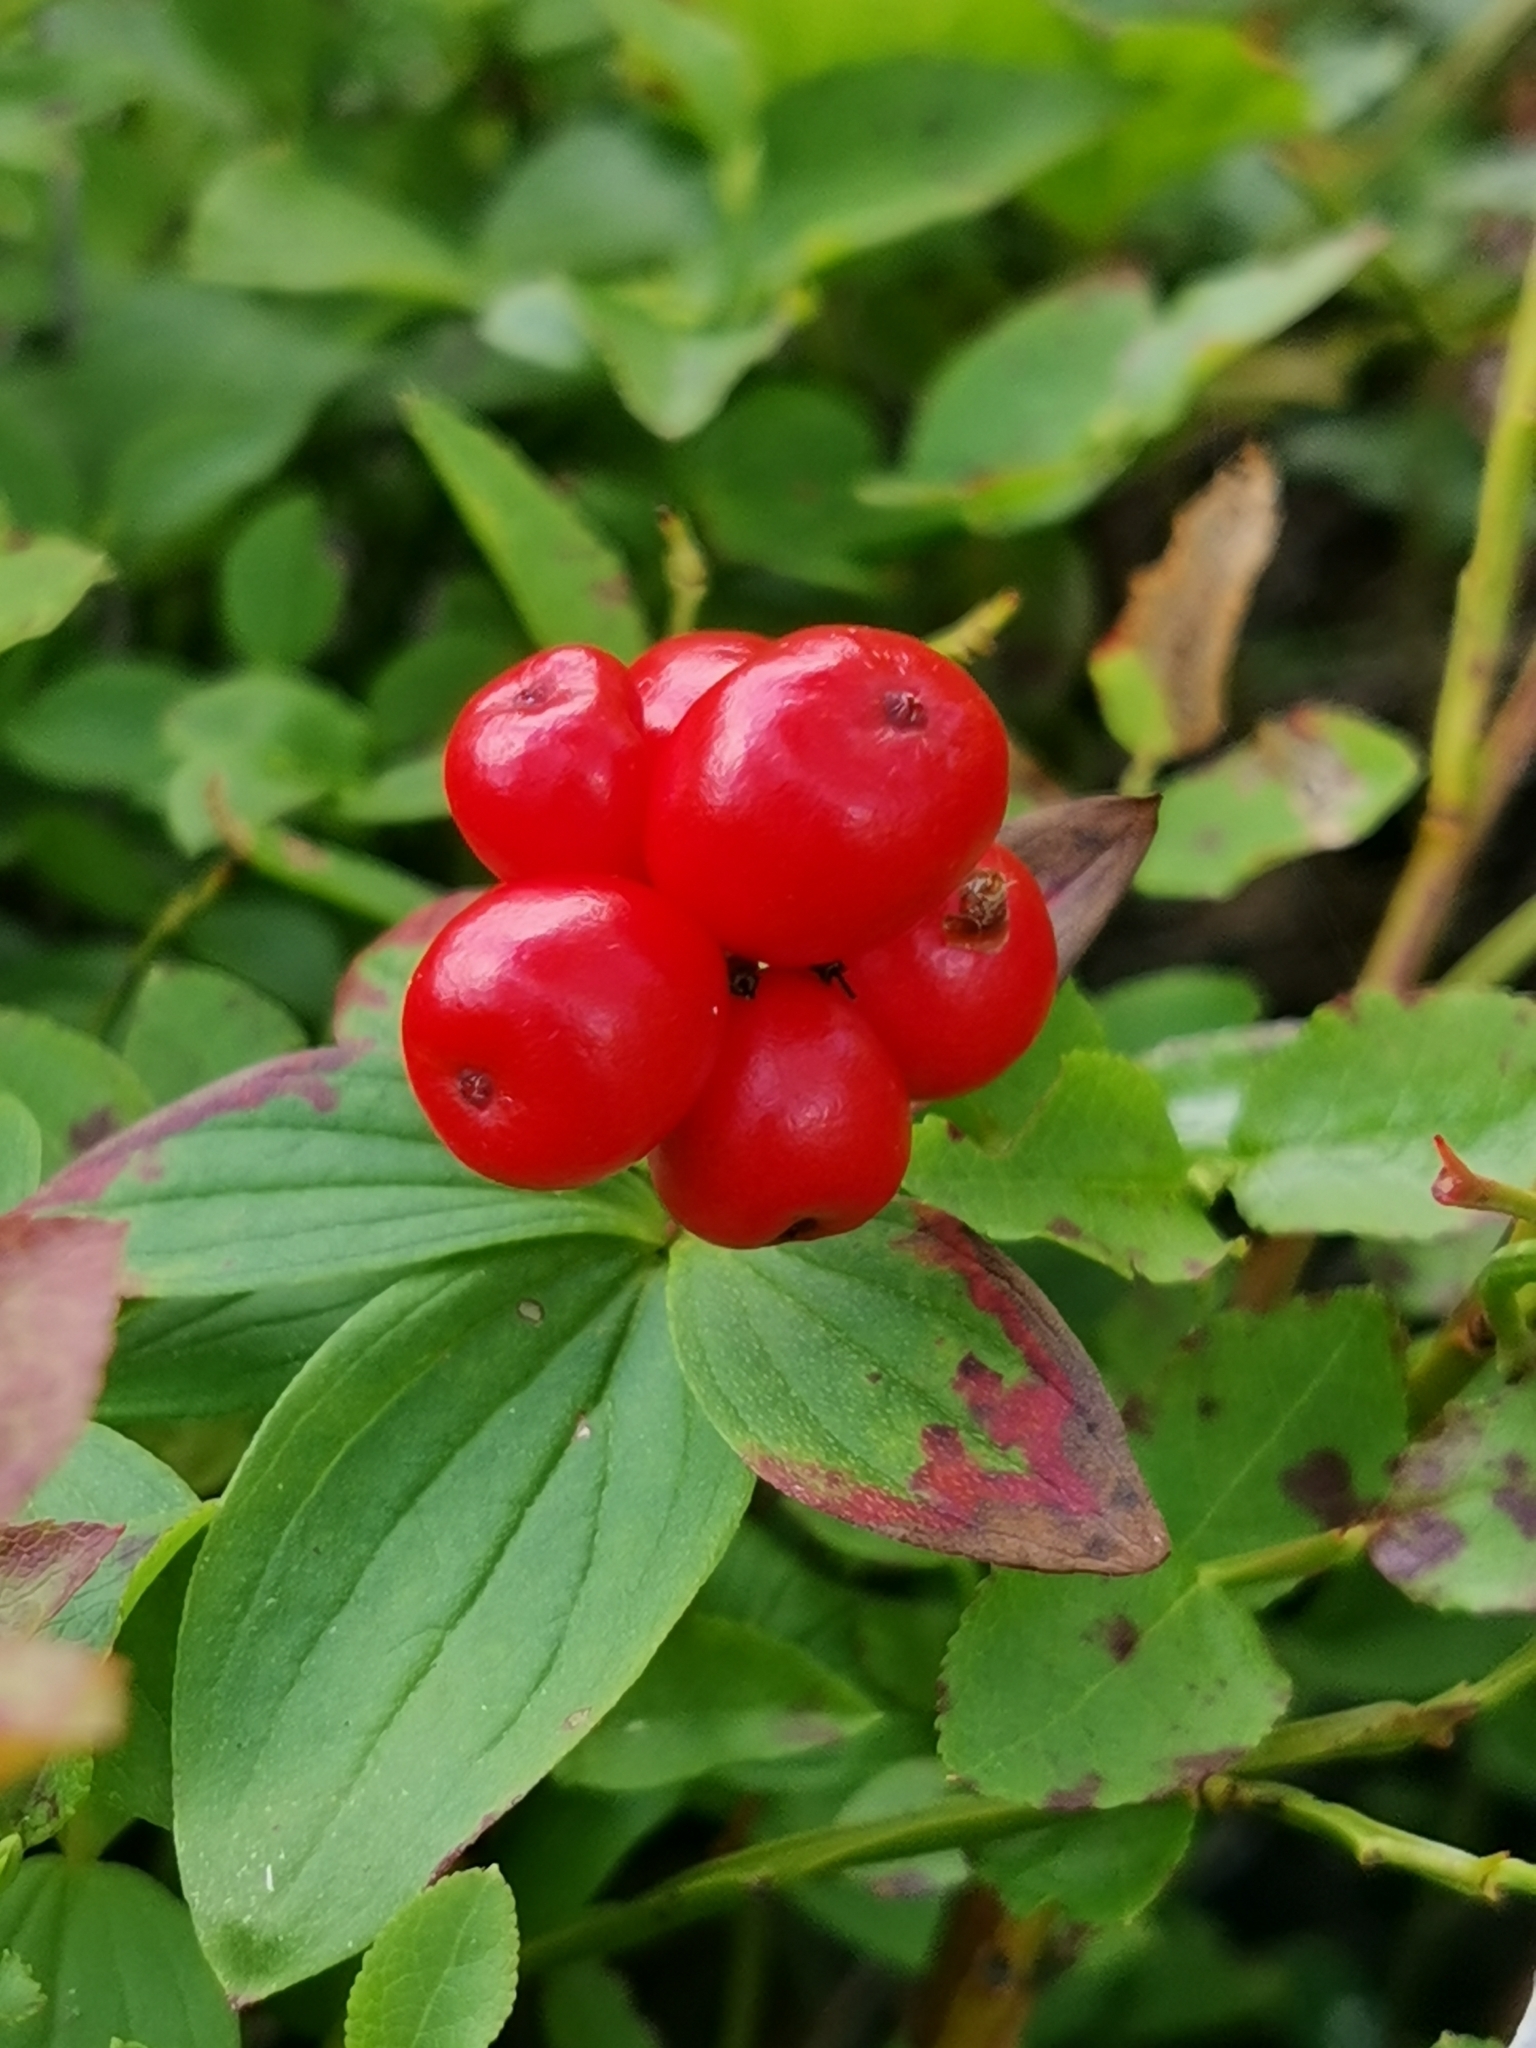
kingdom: Plantae
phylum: Tracheophyta
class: Magnoliopsida
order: Cornales
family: Cornaceae
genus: Cornus
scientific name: Cornus suecica
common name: Dwarf cornel
